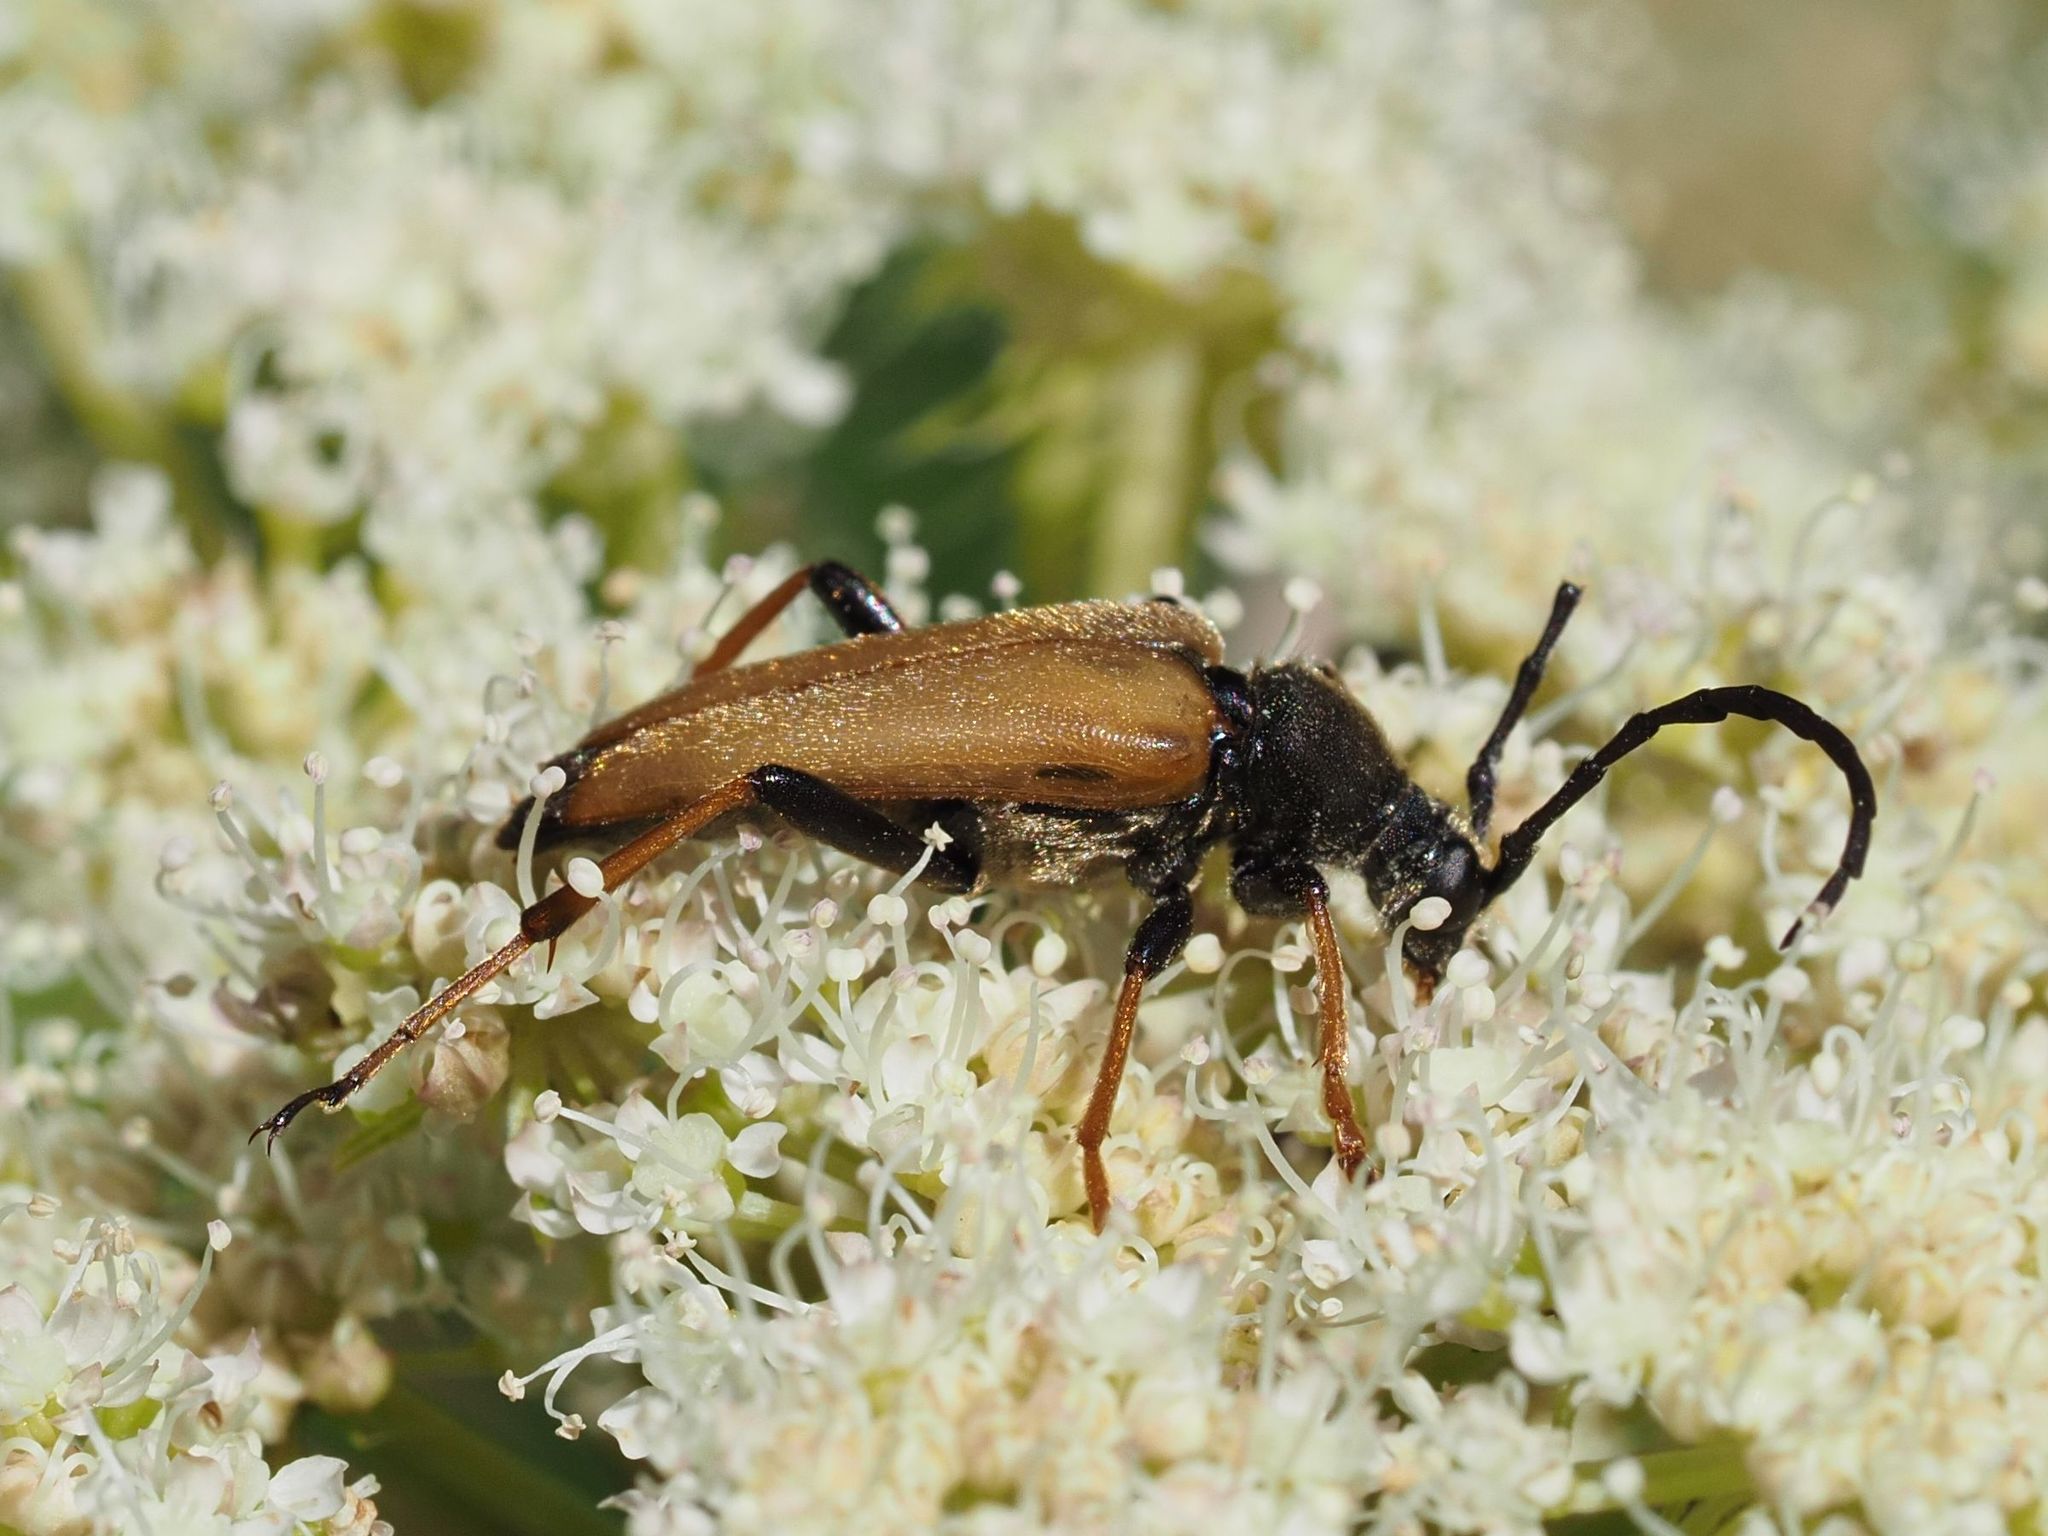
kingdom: Animalia
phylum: Arthropoda
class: Insecta
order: Coleoptera
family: Cerambycidae
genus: Stictoleptura
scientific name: Stictoleptura rubra
